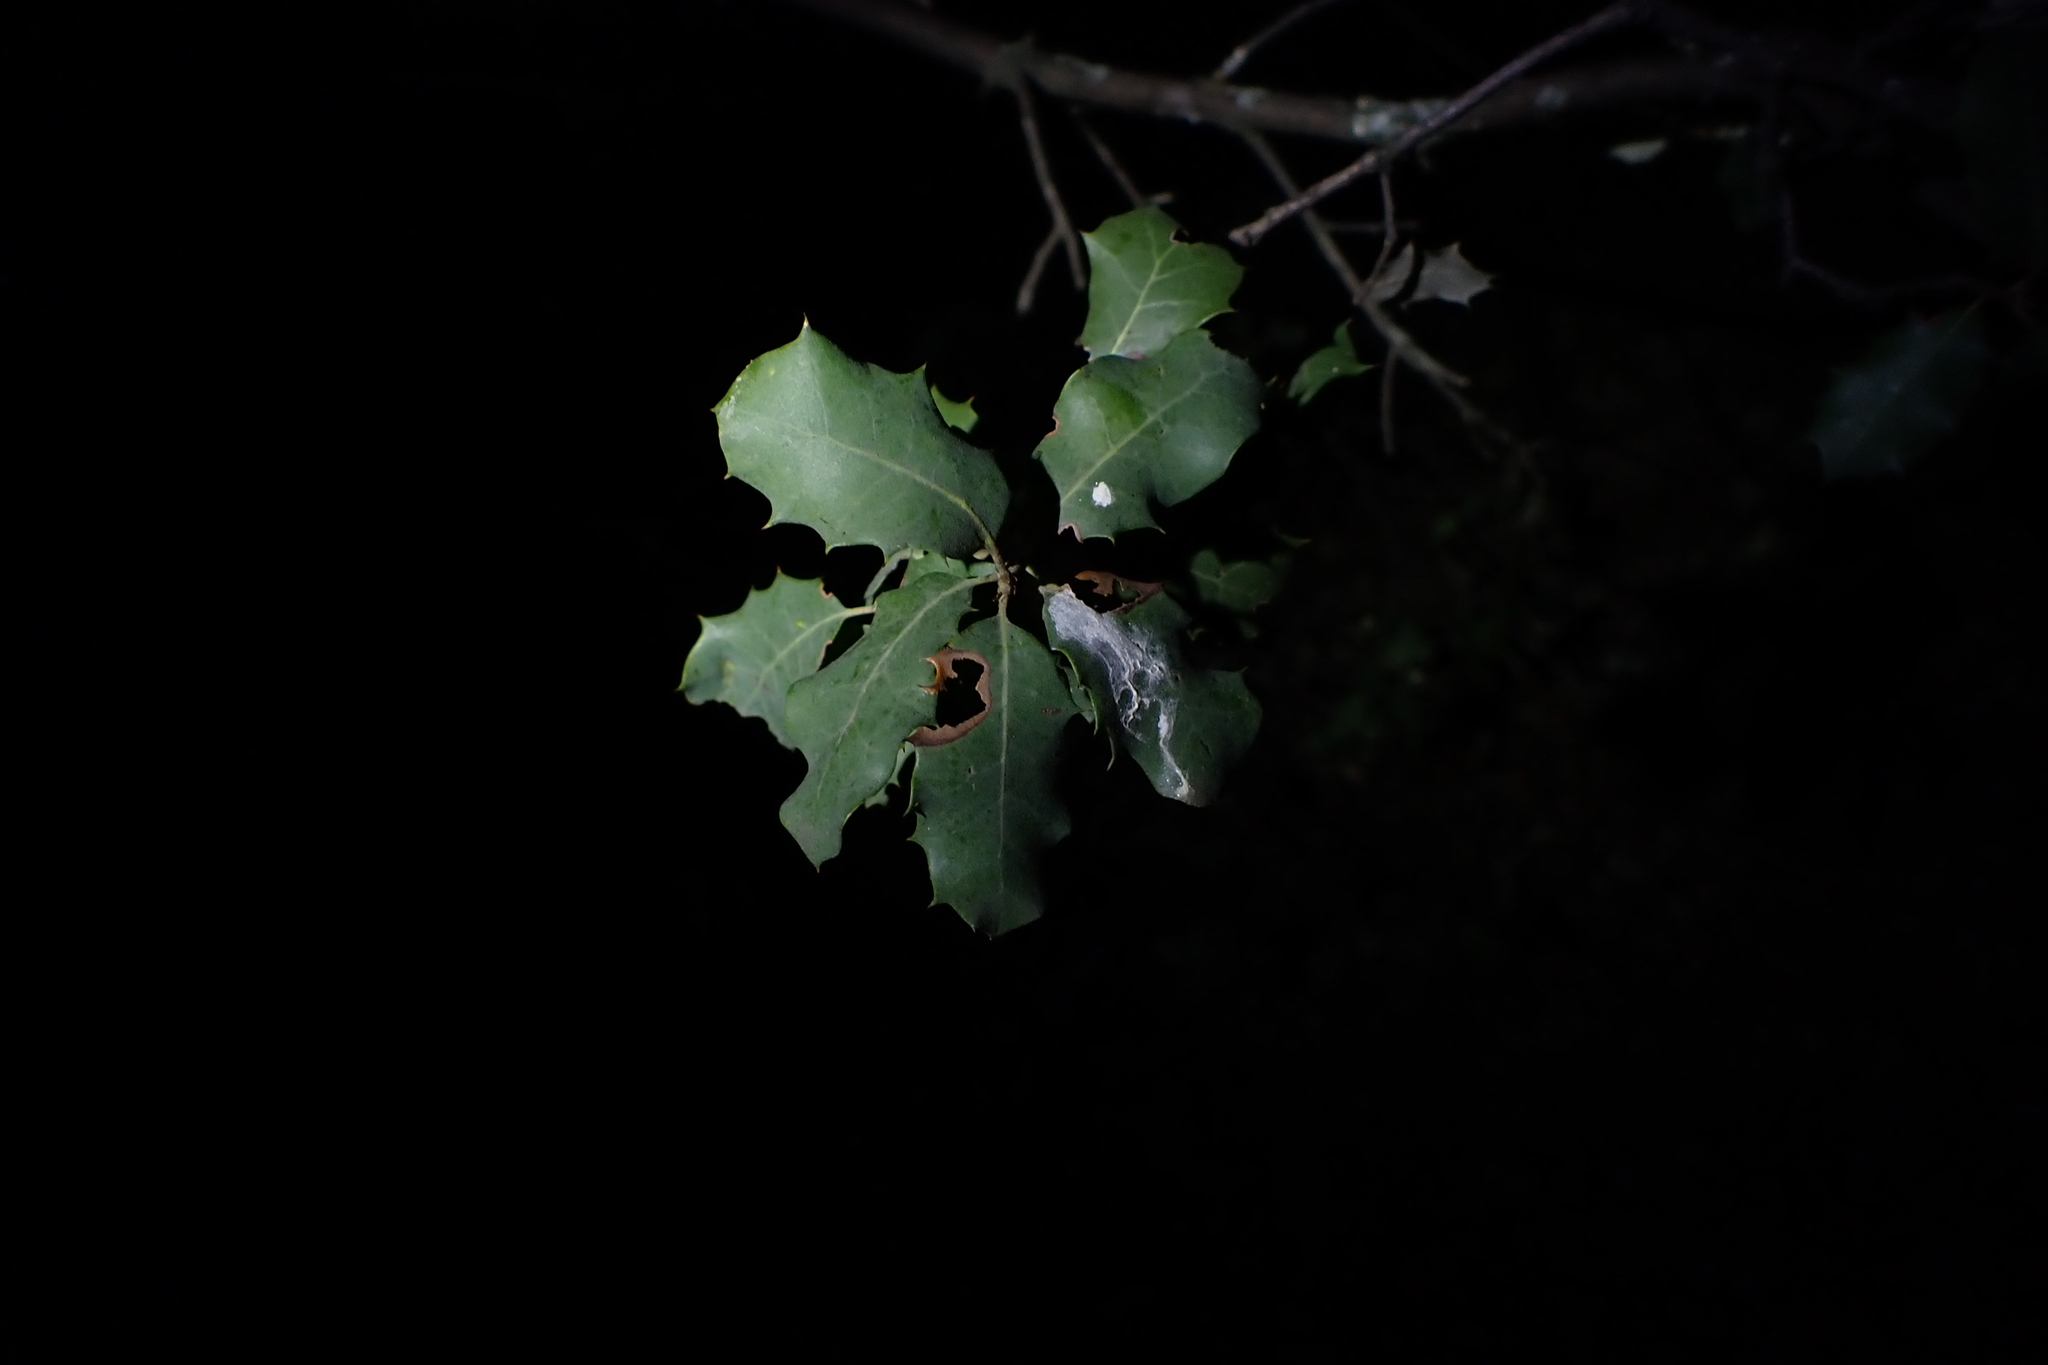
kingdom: Plantae
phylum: Tracheophyta
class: Magnoliopsida
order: Fagales
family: Fagaceae
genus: Quercus
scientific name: Quercus rotundifolia
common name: Holm oak
